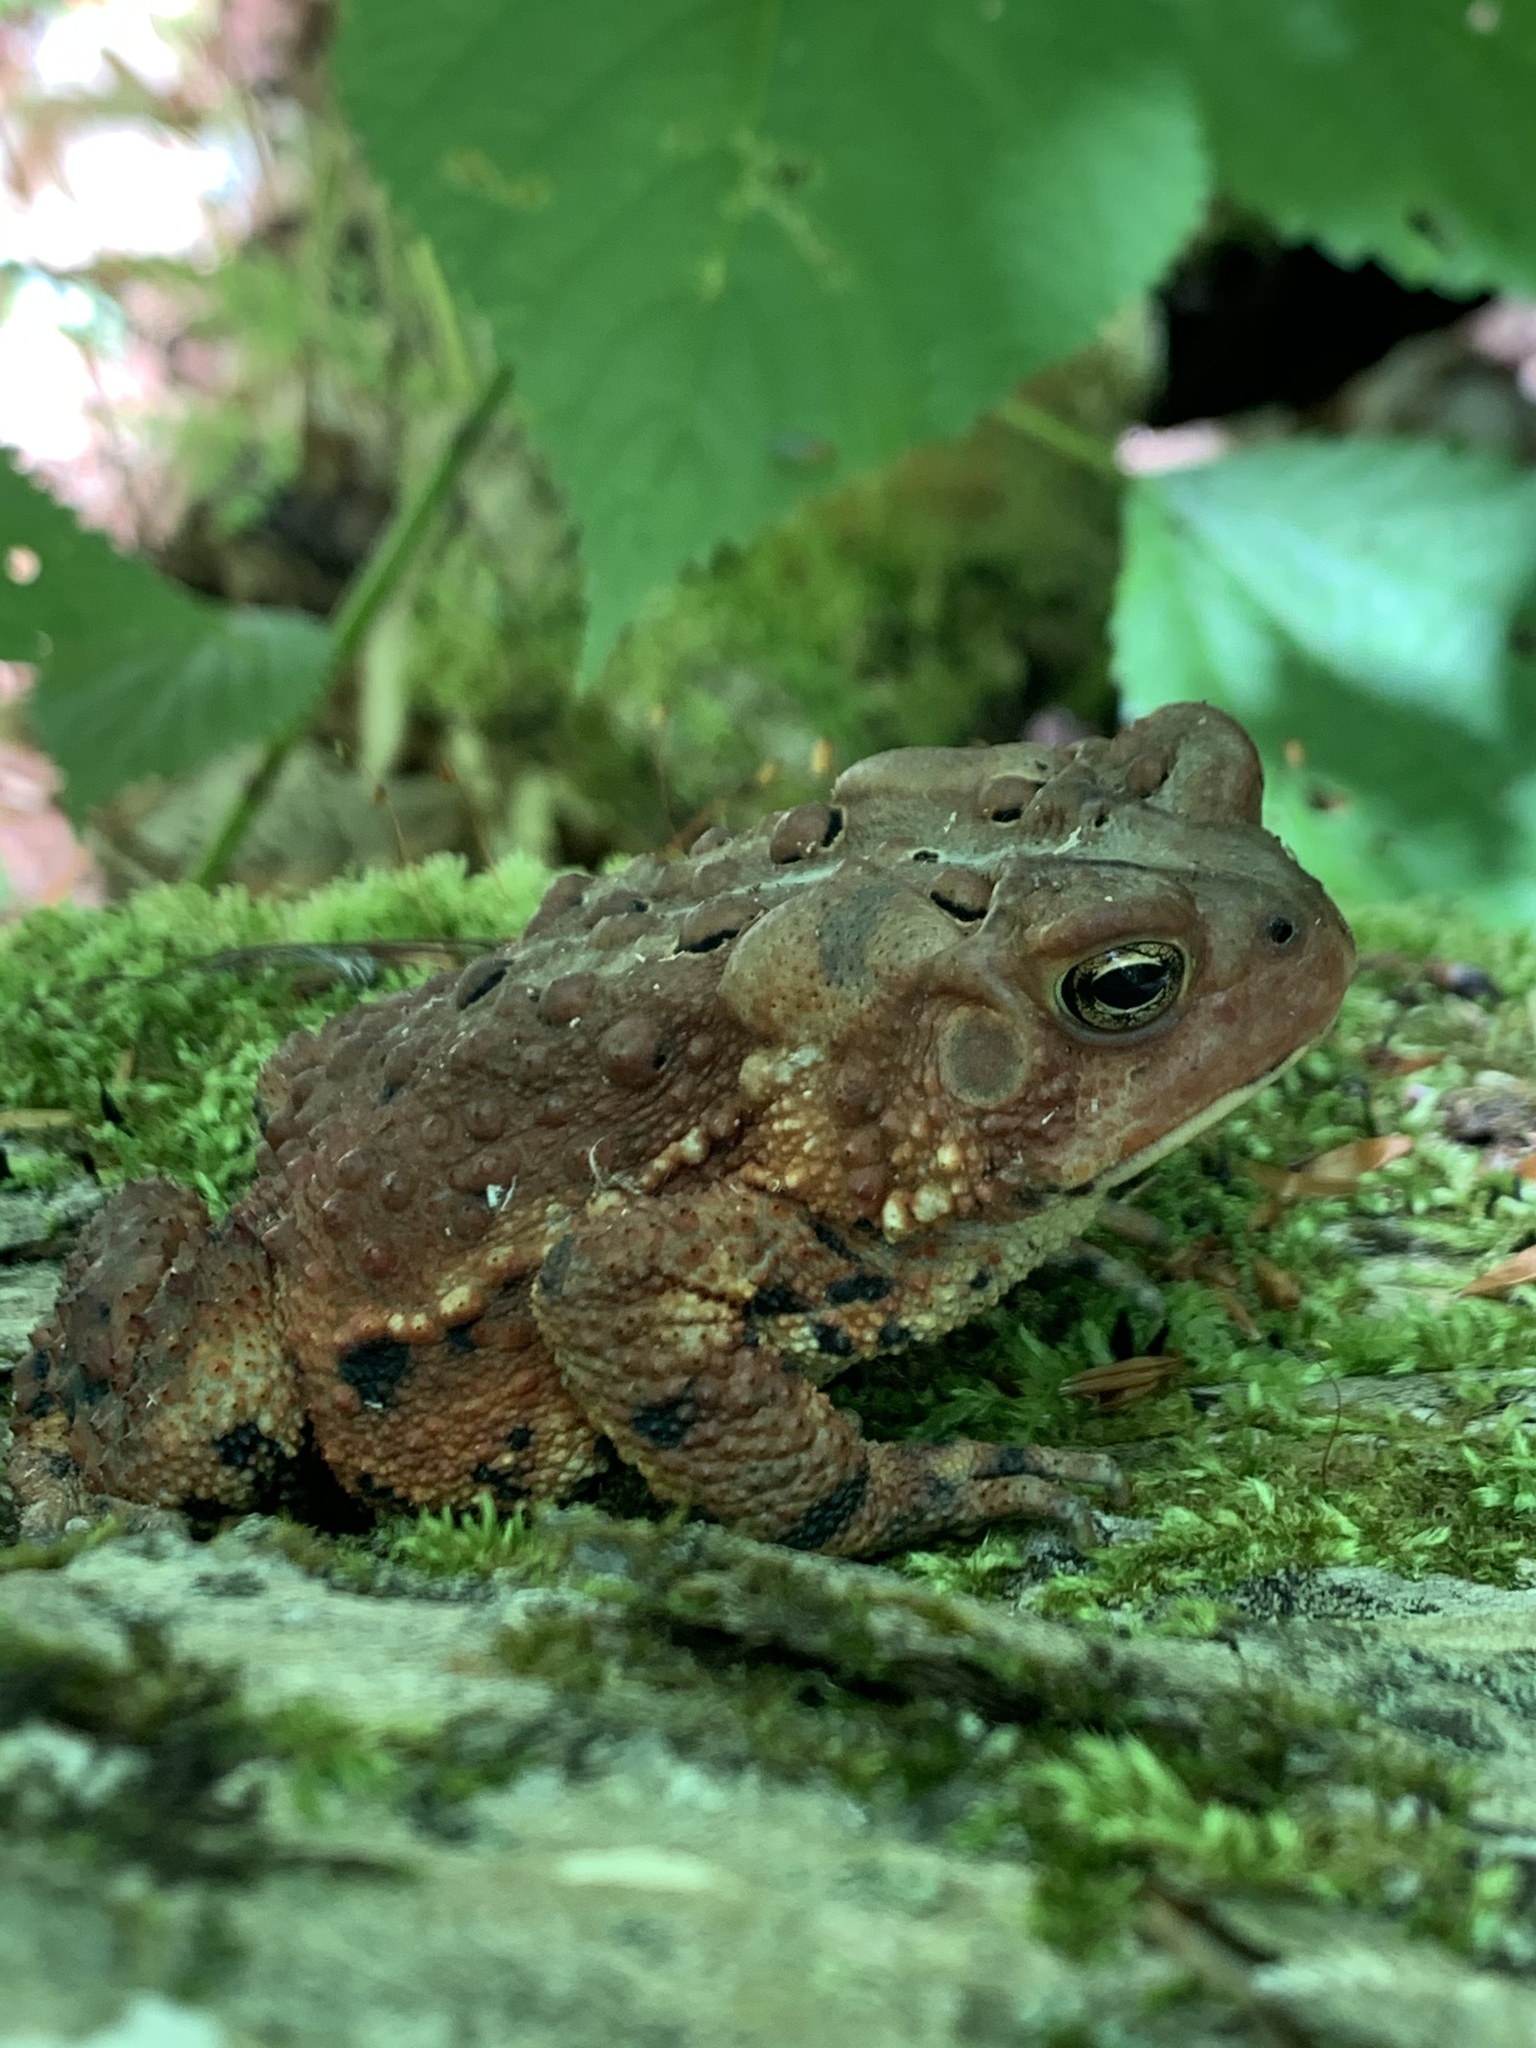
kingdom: Animalia
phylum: Chordata
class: Amphibia
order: Anura
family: Bufonidae
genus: Anaxyrus
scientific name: Anaxyrus americanus
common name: American toad
